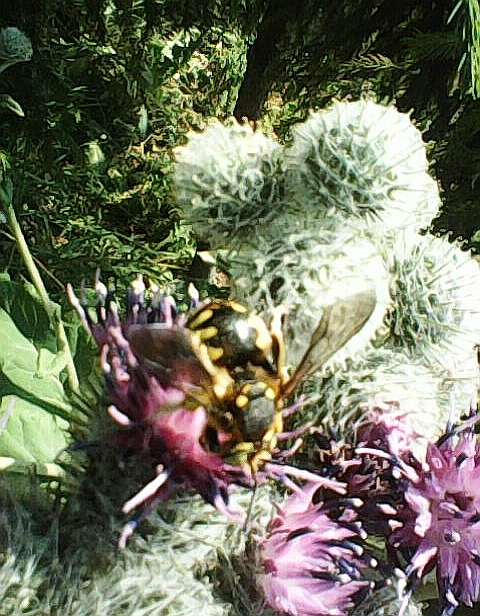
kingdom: Plantae
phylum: Tracheophyta
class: Magnoliopsida
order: Asterales
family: Asteraceae
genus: Arctium
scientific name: Arctium tomentosum
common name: Woolly burdock
